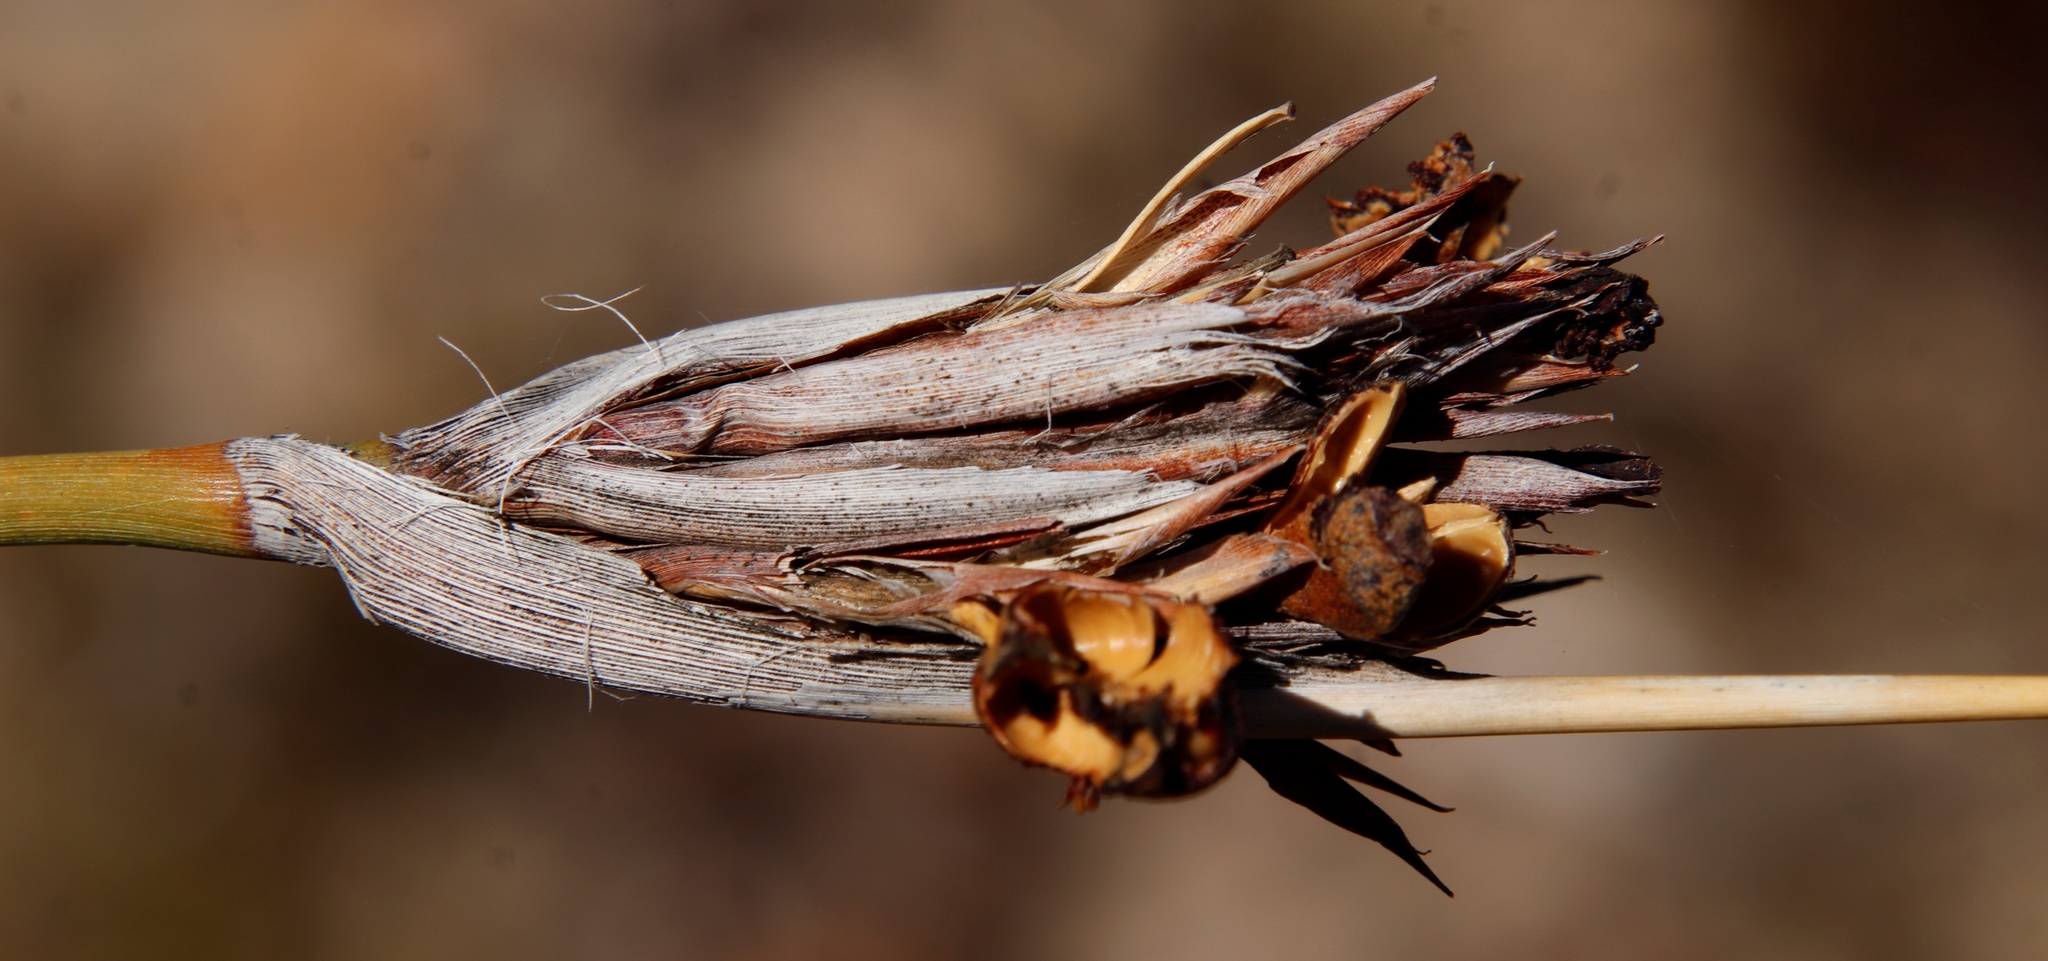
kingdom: Plantae
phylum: Tracheophyta
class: Liliopsida
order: Asparagales
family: Iridaceae
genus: Bobartia
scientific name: Bobartia rufa
